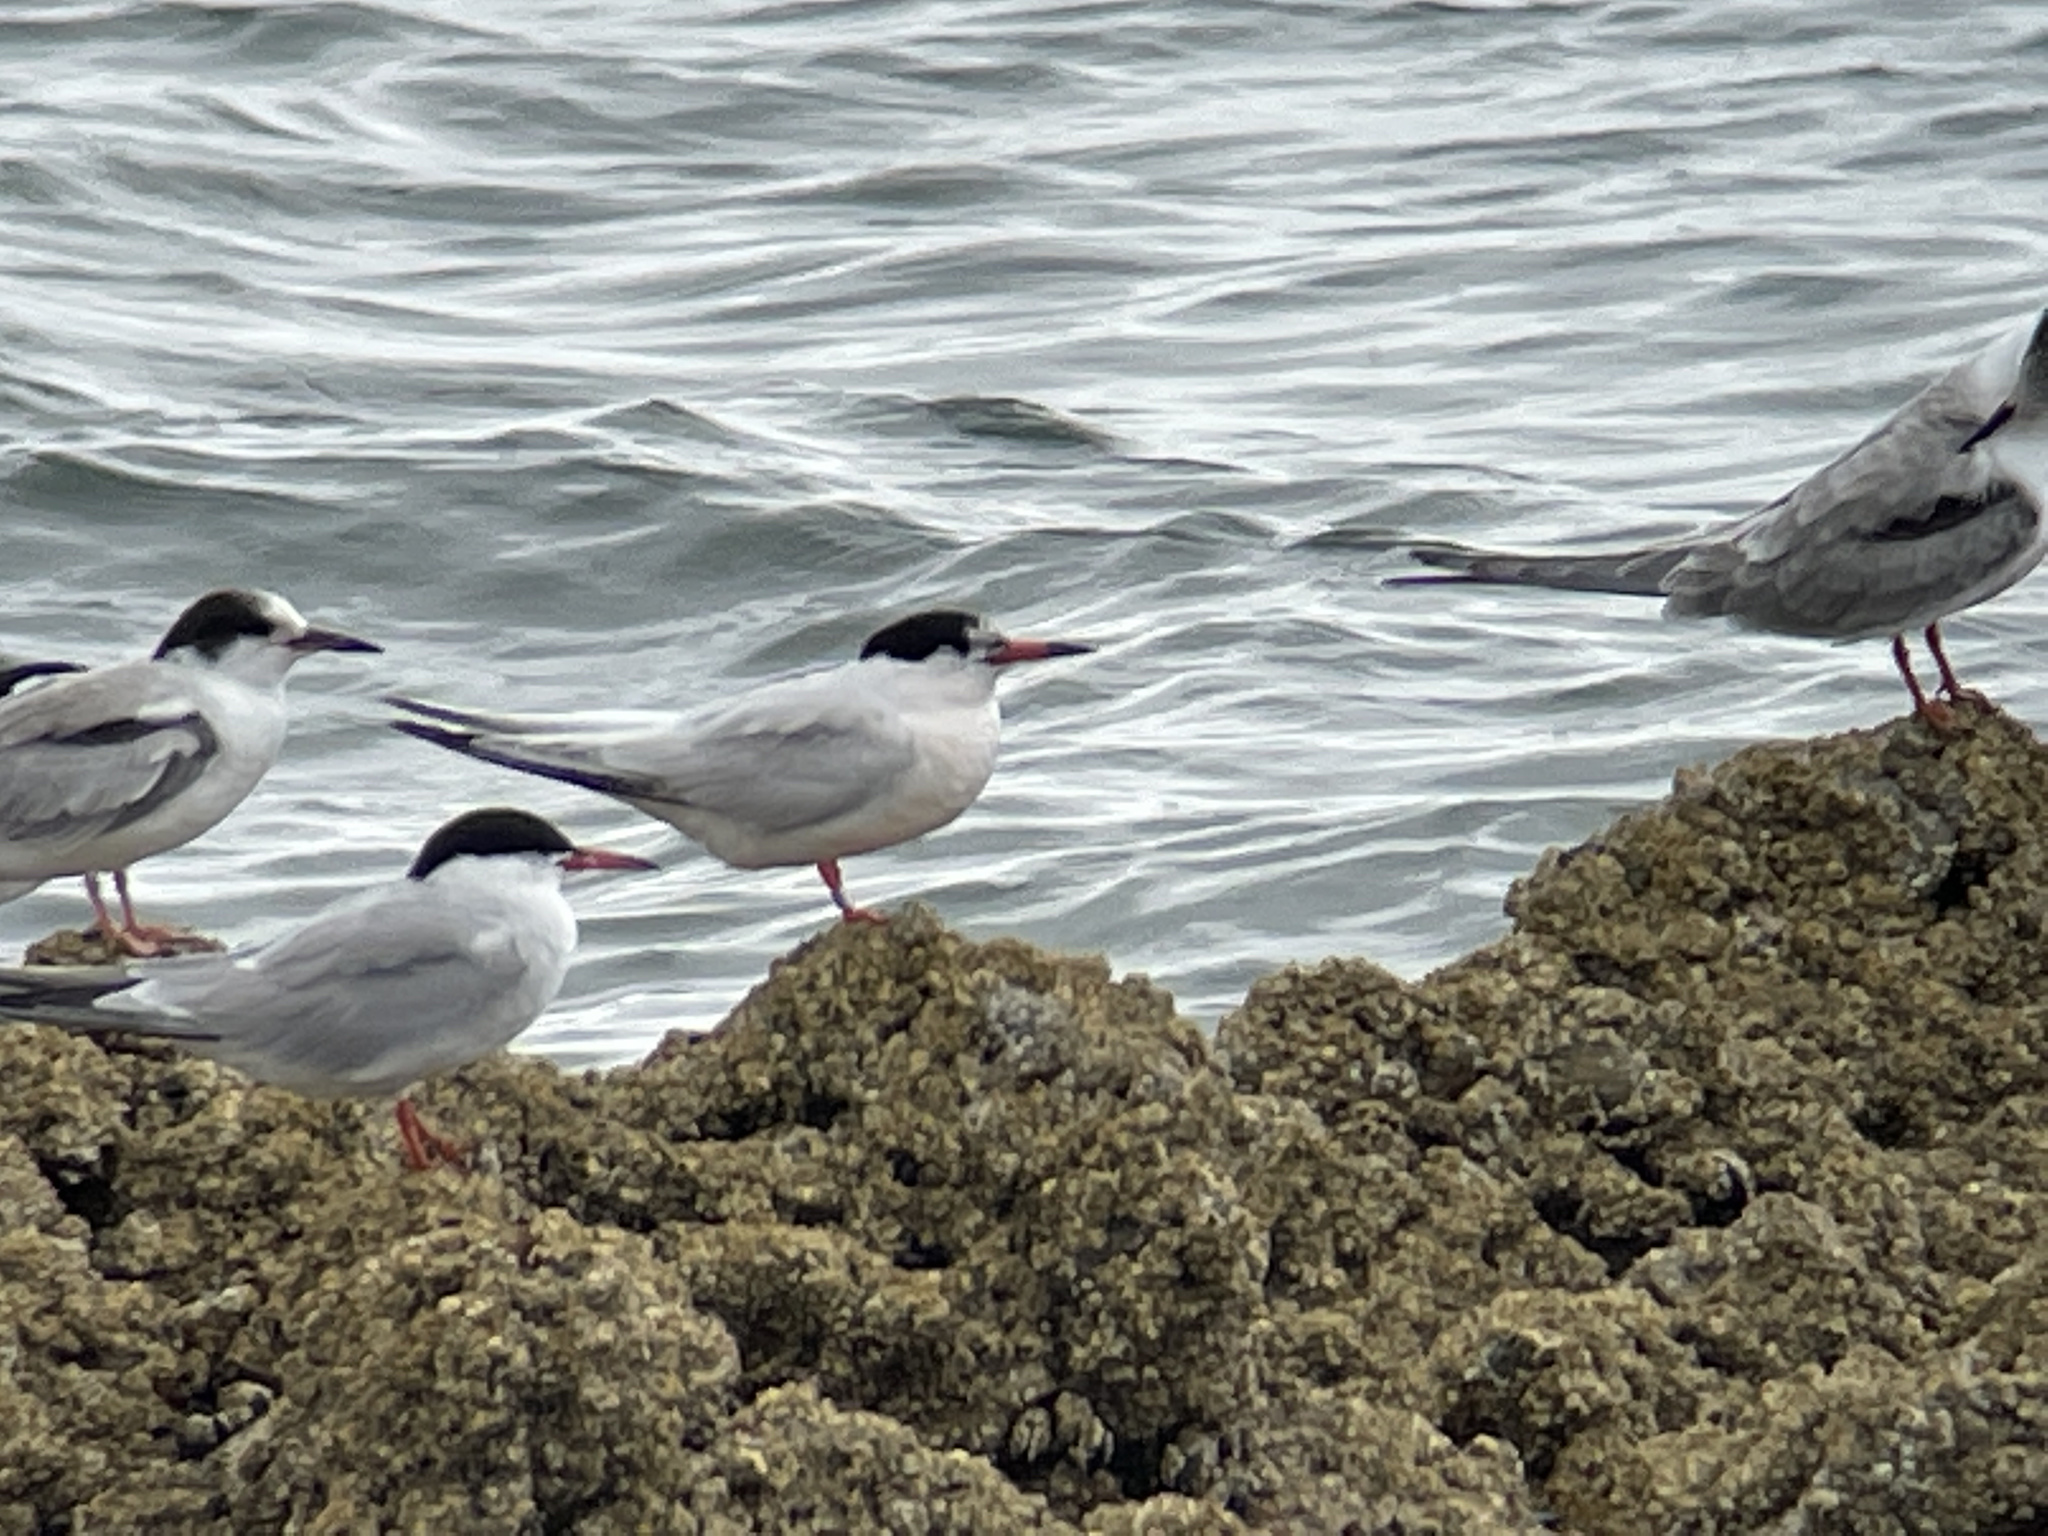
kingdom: Animalia
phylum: Chordata
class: Aves
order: Charadriiformes
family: Laridae
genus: Sterna
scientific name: Sterna dougallii
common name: Roseate tern
